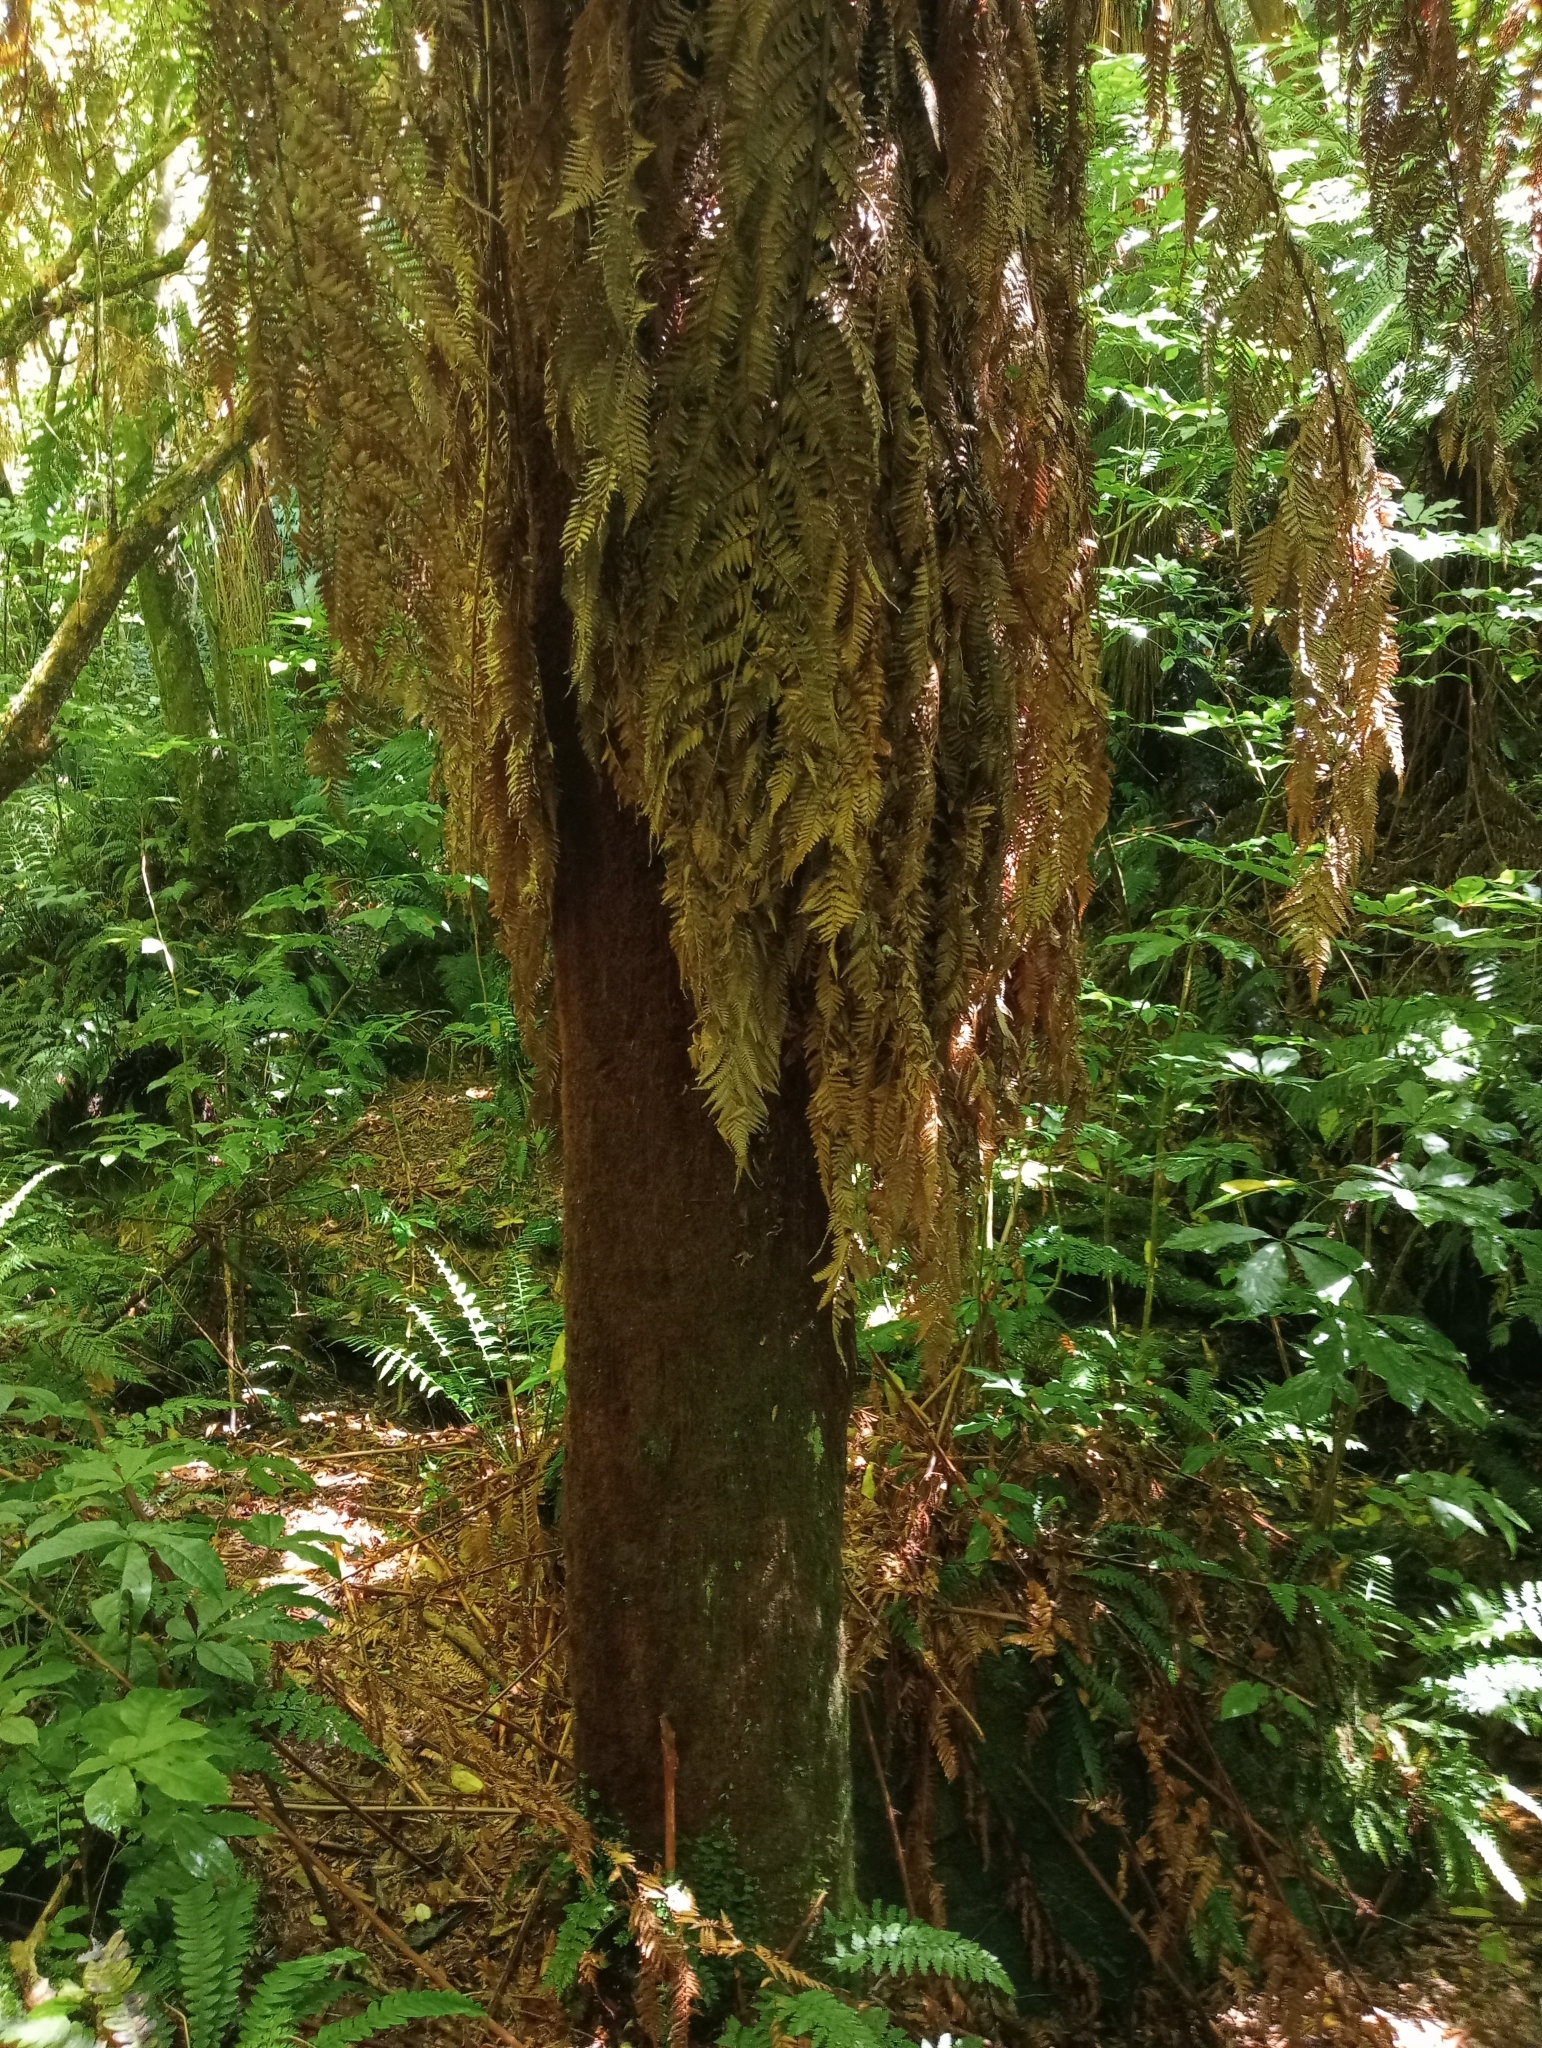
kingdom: Plantae
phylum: Tracheophyta
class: Polypodiopsida
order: Cyatheales
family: Dicksoniaceae
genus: Dicksonia
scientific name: Dicksonia fibrosa
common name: Golden tree fern
